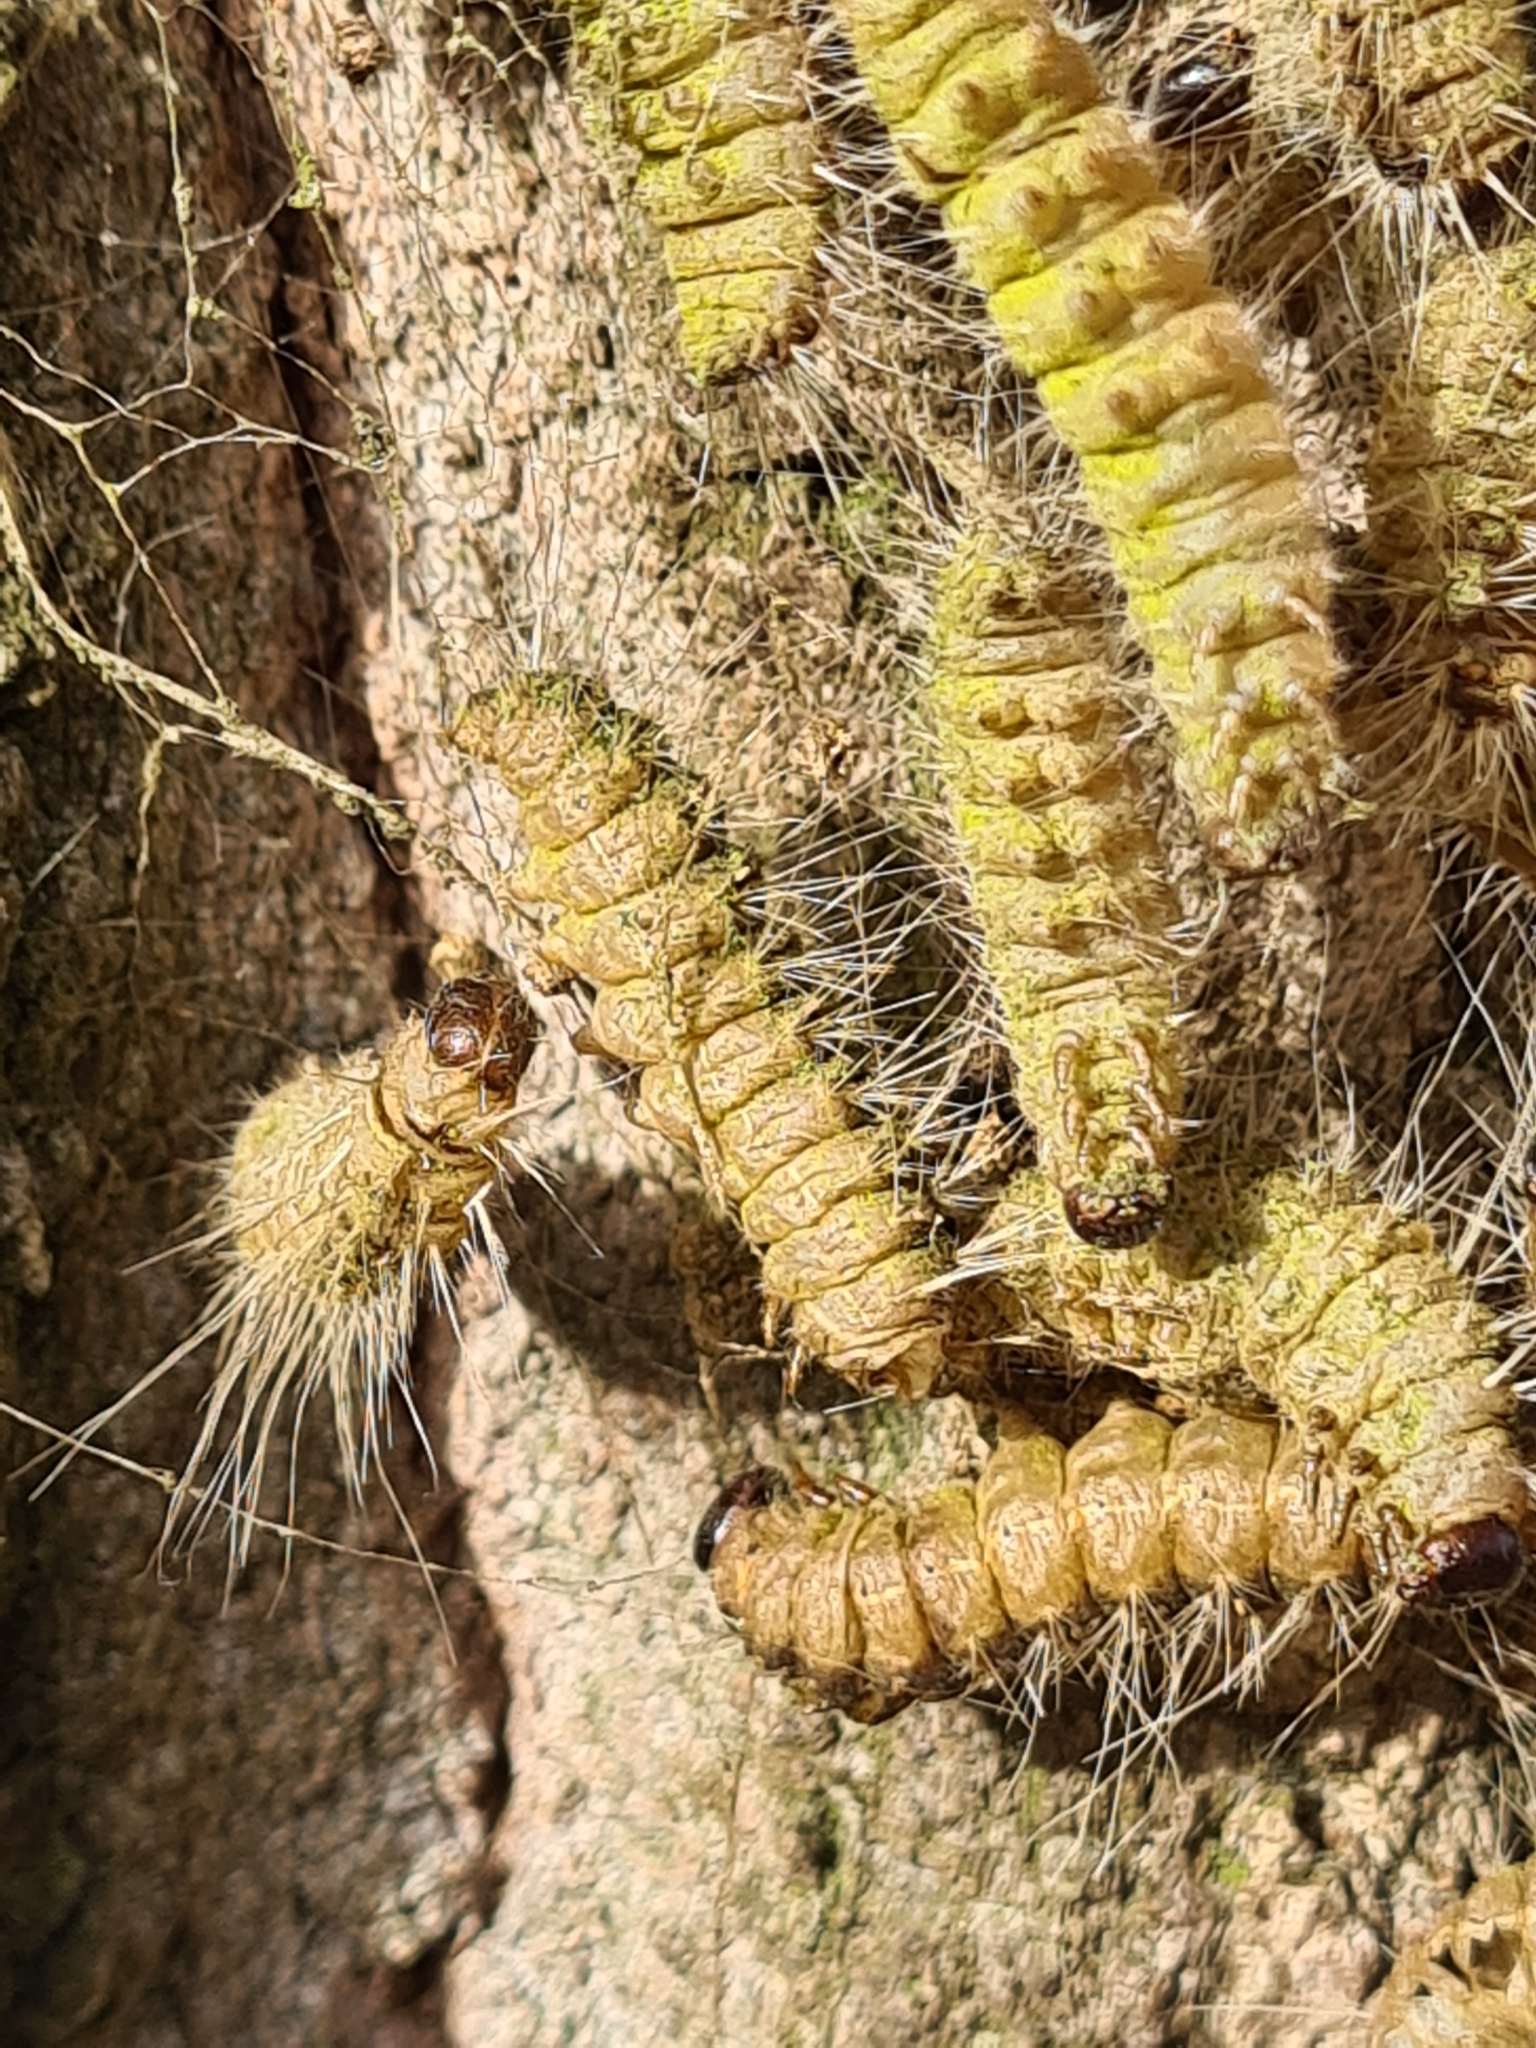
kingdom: Animalia
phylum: Arthropoda
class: Insecta
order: Lepidoptera
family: Notodontidae
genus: Thaumetopoea
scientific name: Thaumetopoea processionea
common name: Oak processionea
